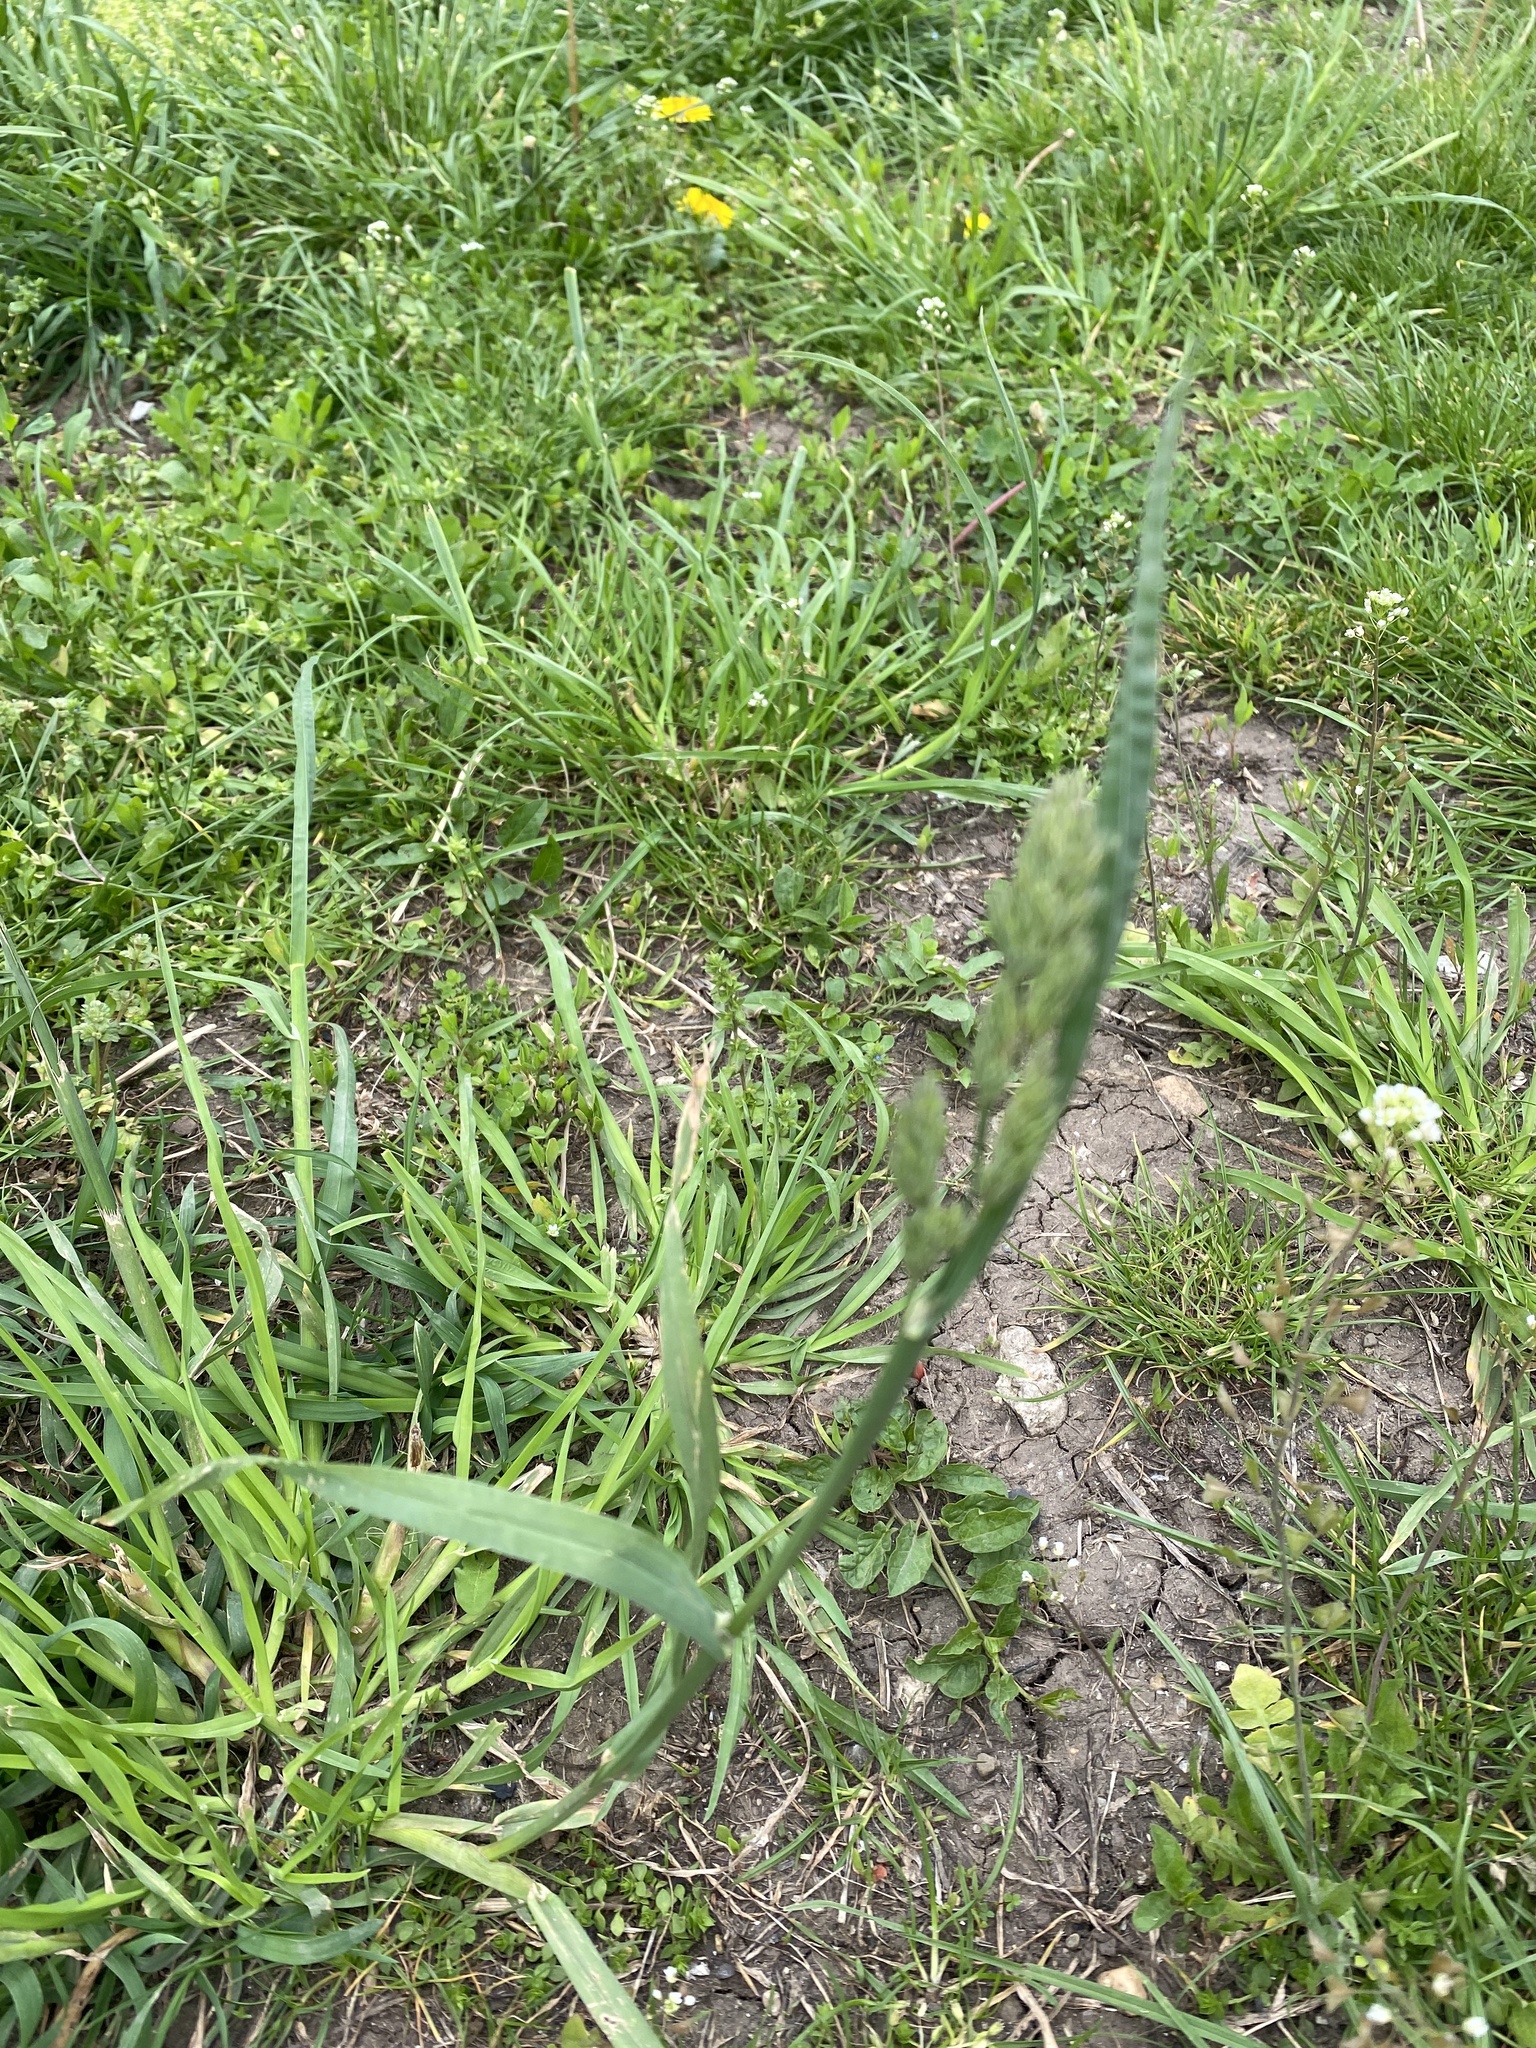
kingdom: Plantae
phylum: Tracheophyta
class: Liliopsida
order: Poales
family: Poaceae
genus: Dactylis
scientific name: Dactylis glomerata
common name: Orchardgrass
